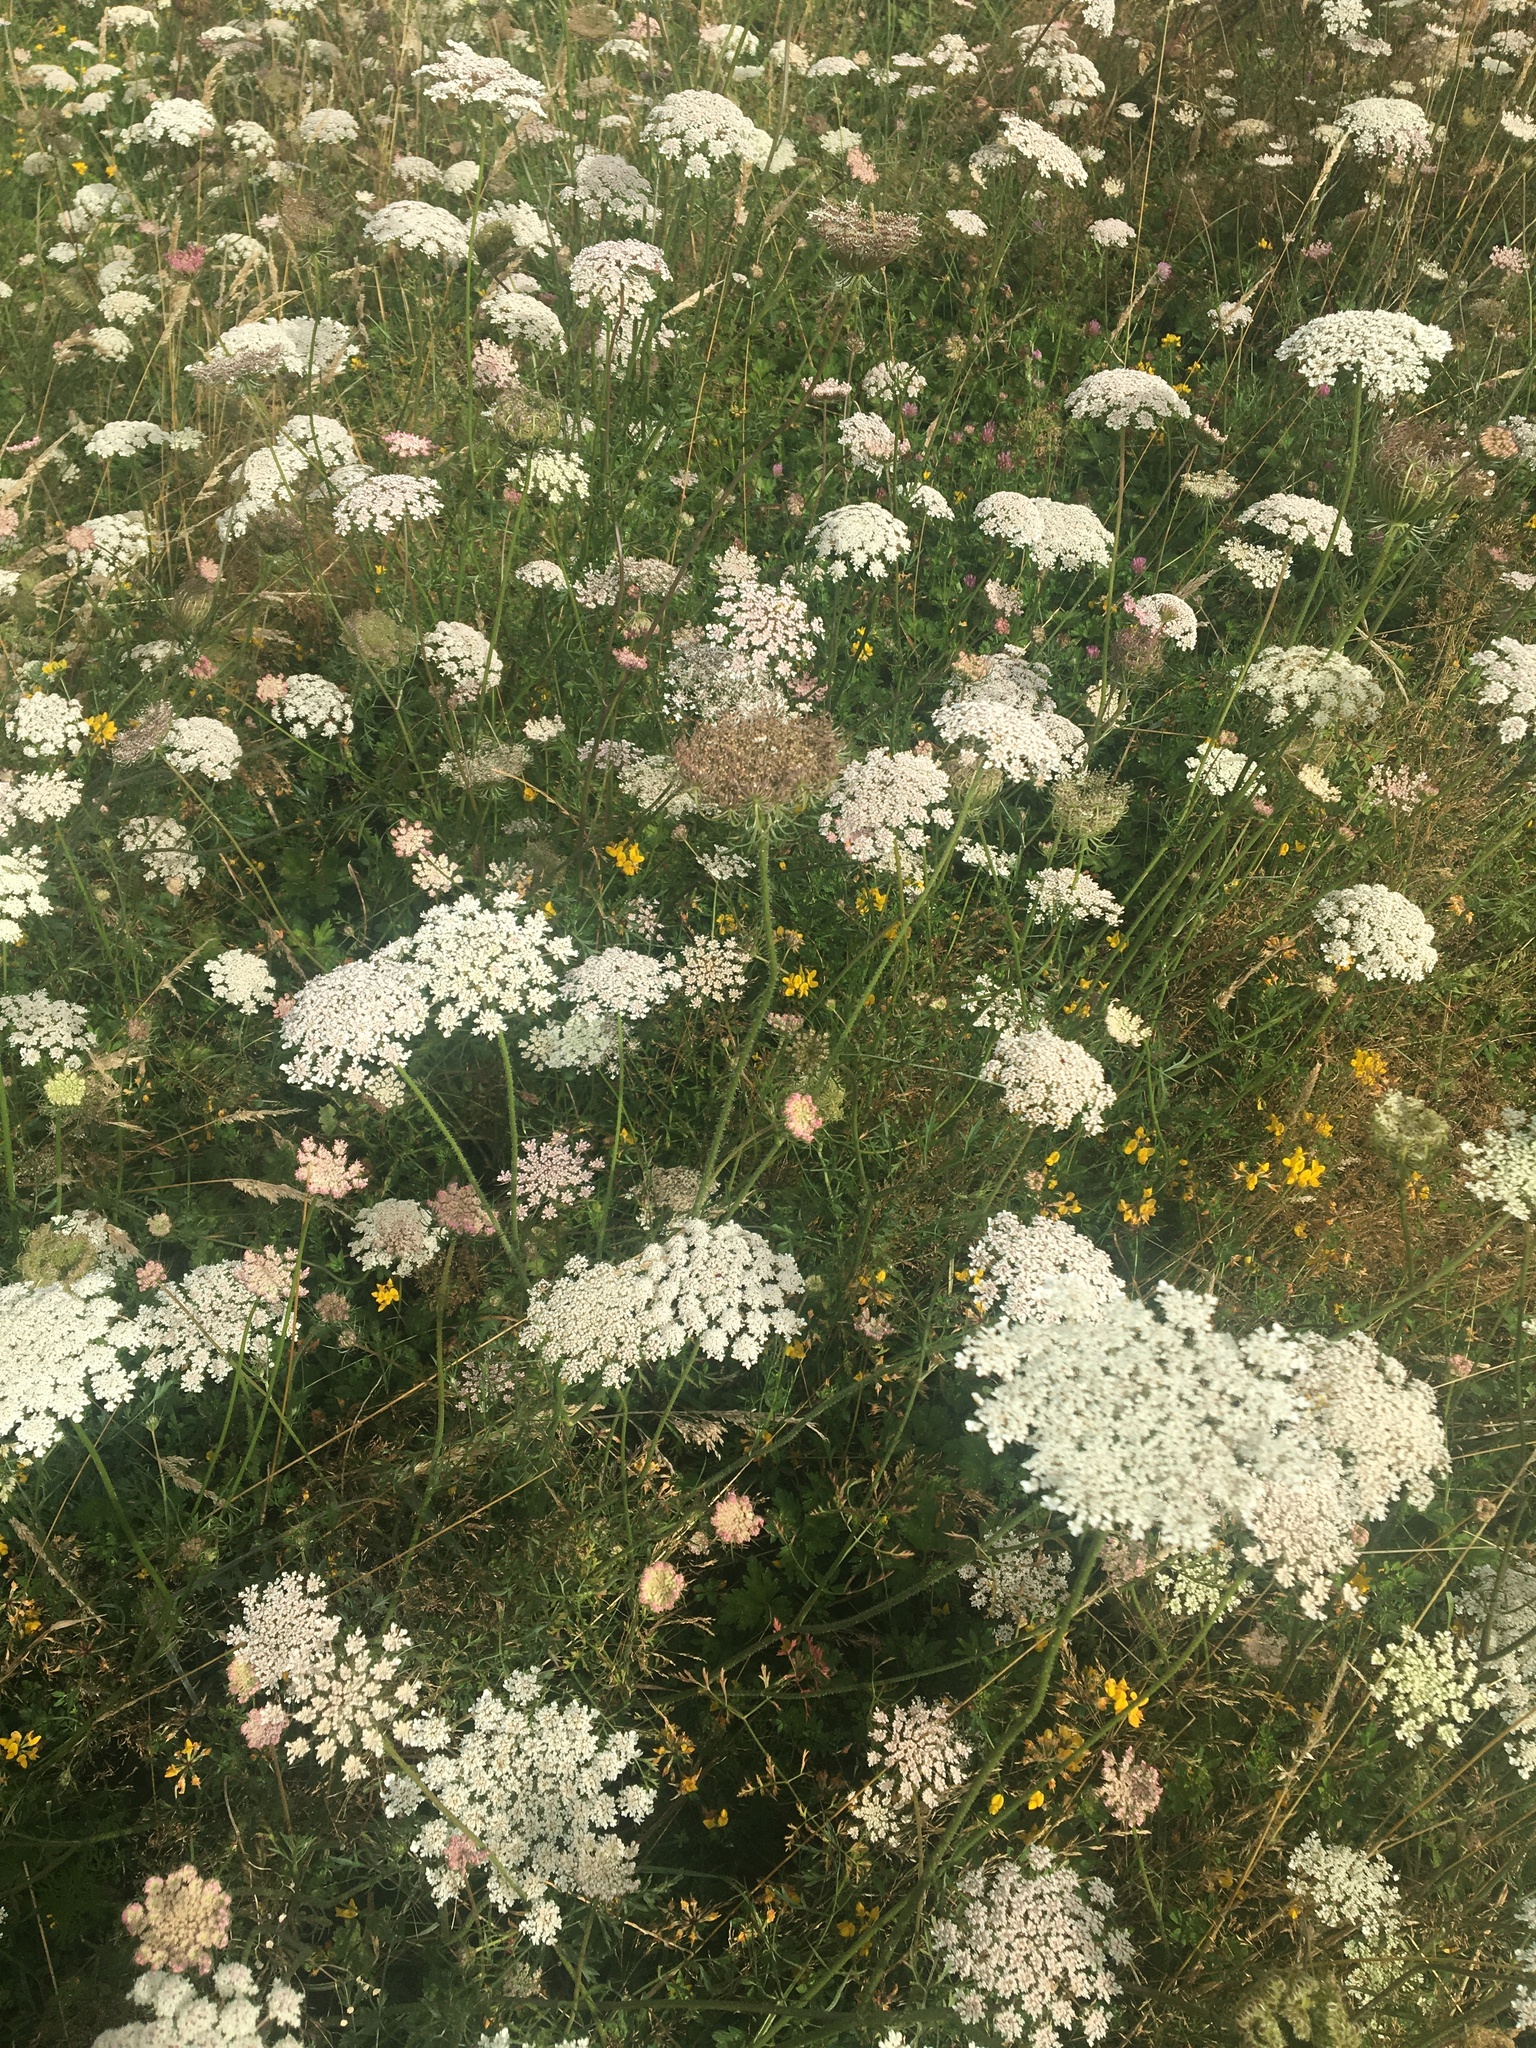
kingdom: Plantae
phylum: Tracheophyta
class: Magnoliopsida
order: Apiales
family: Apiaceae
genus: Daucus
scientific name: Daucus carota
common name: Wild carrot
